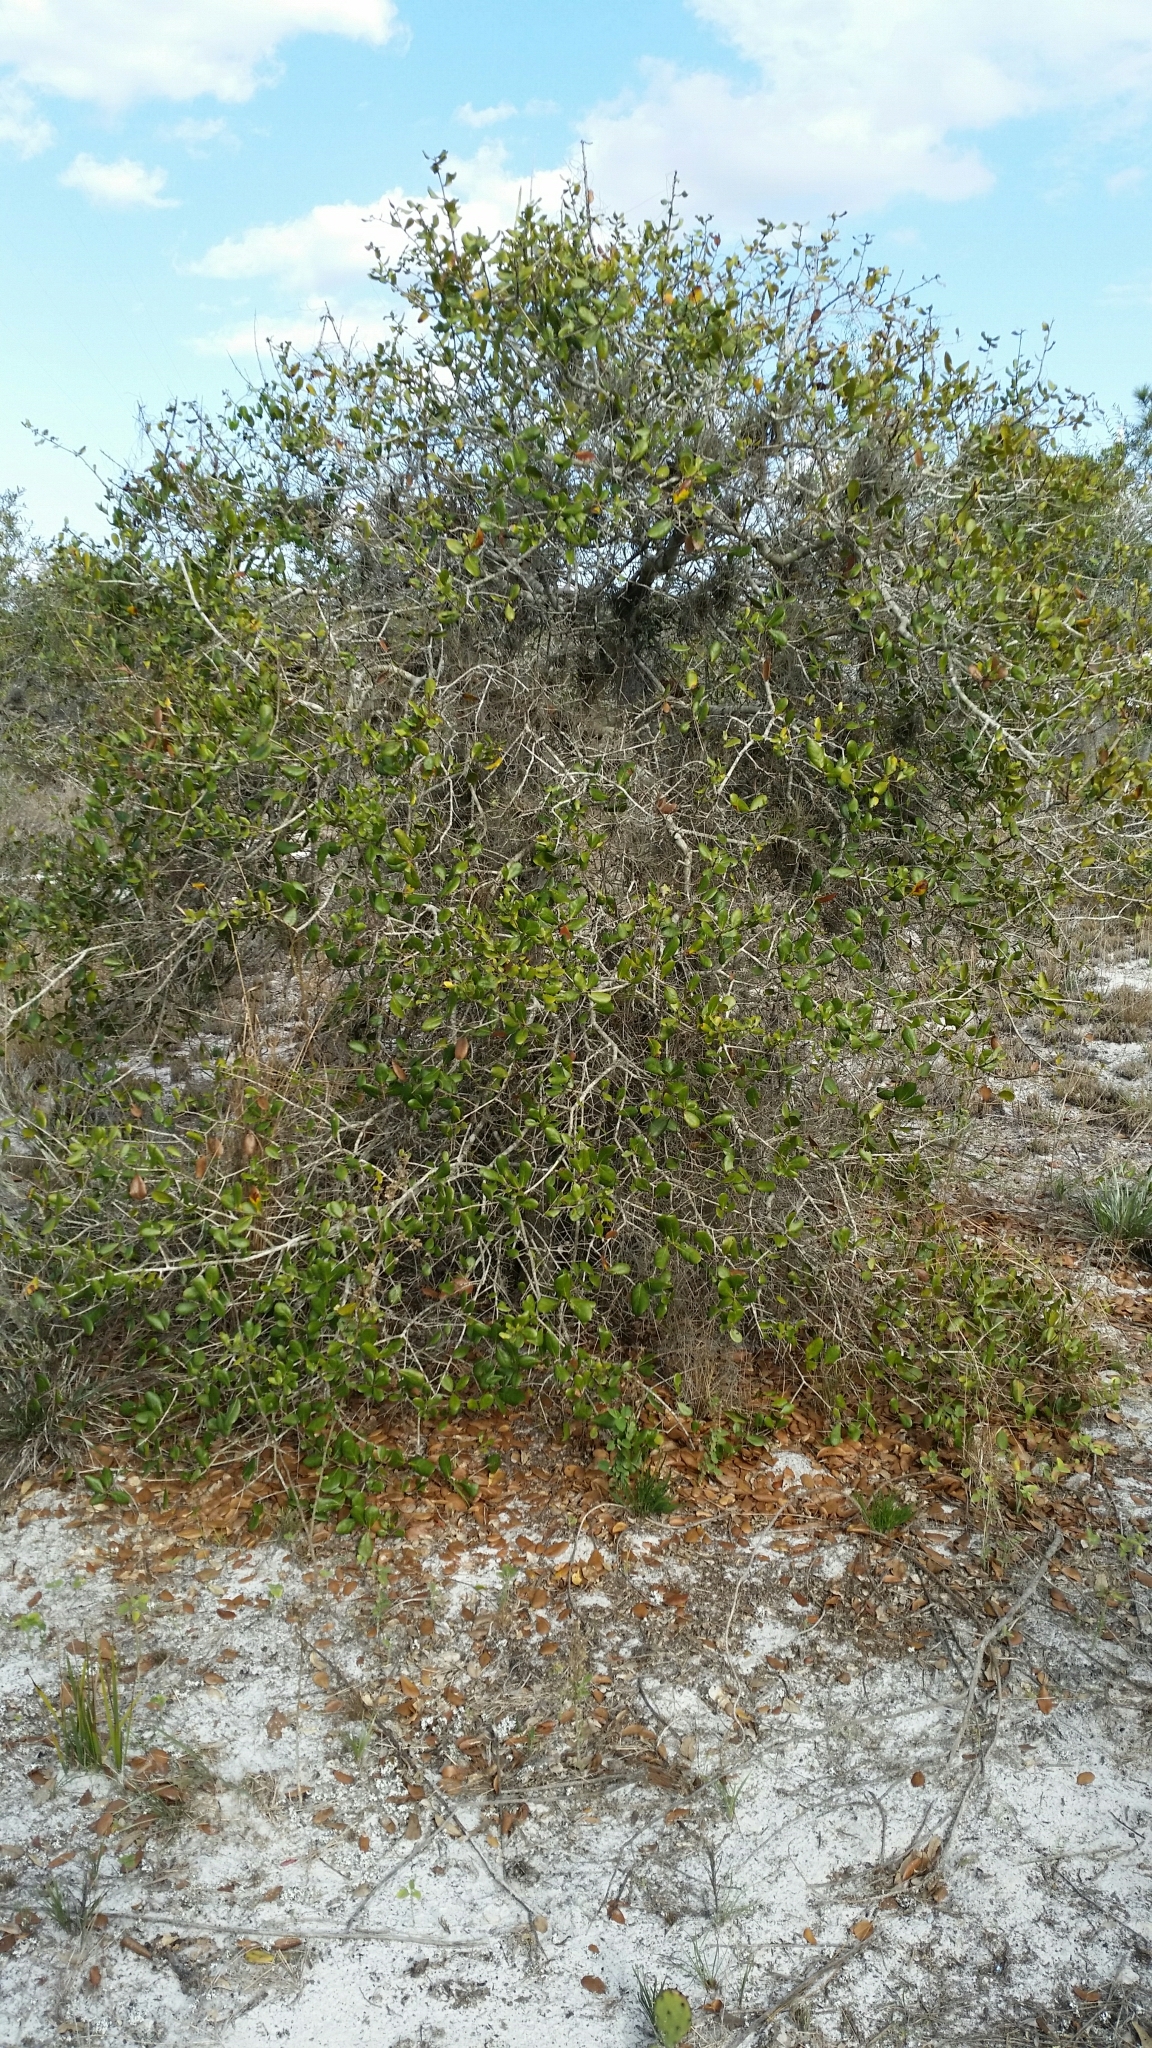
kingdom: Plantae
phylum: Tracheophyta
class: Magnoliopsida
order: Fagales
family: Fagaceae
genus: Quercus
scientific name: Quercus myrtifolia
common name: Myrtle oak
